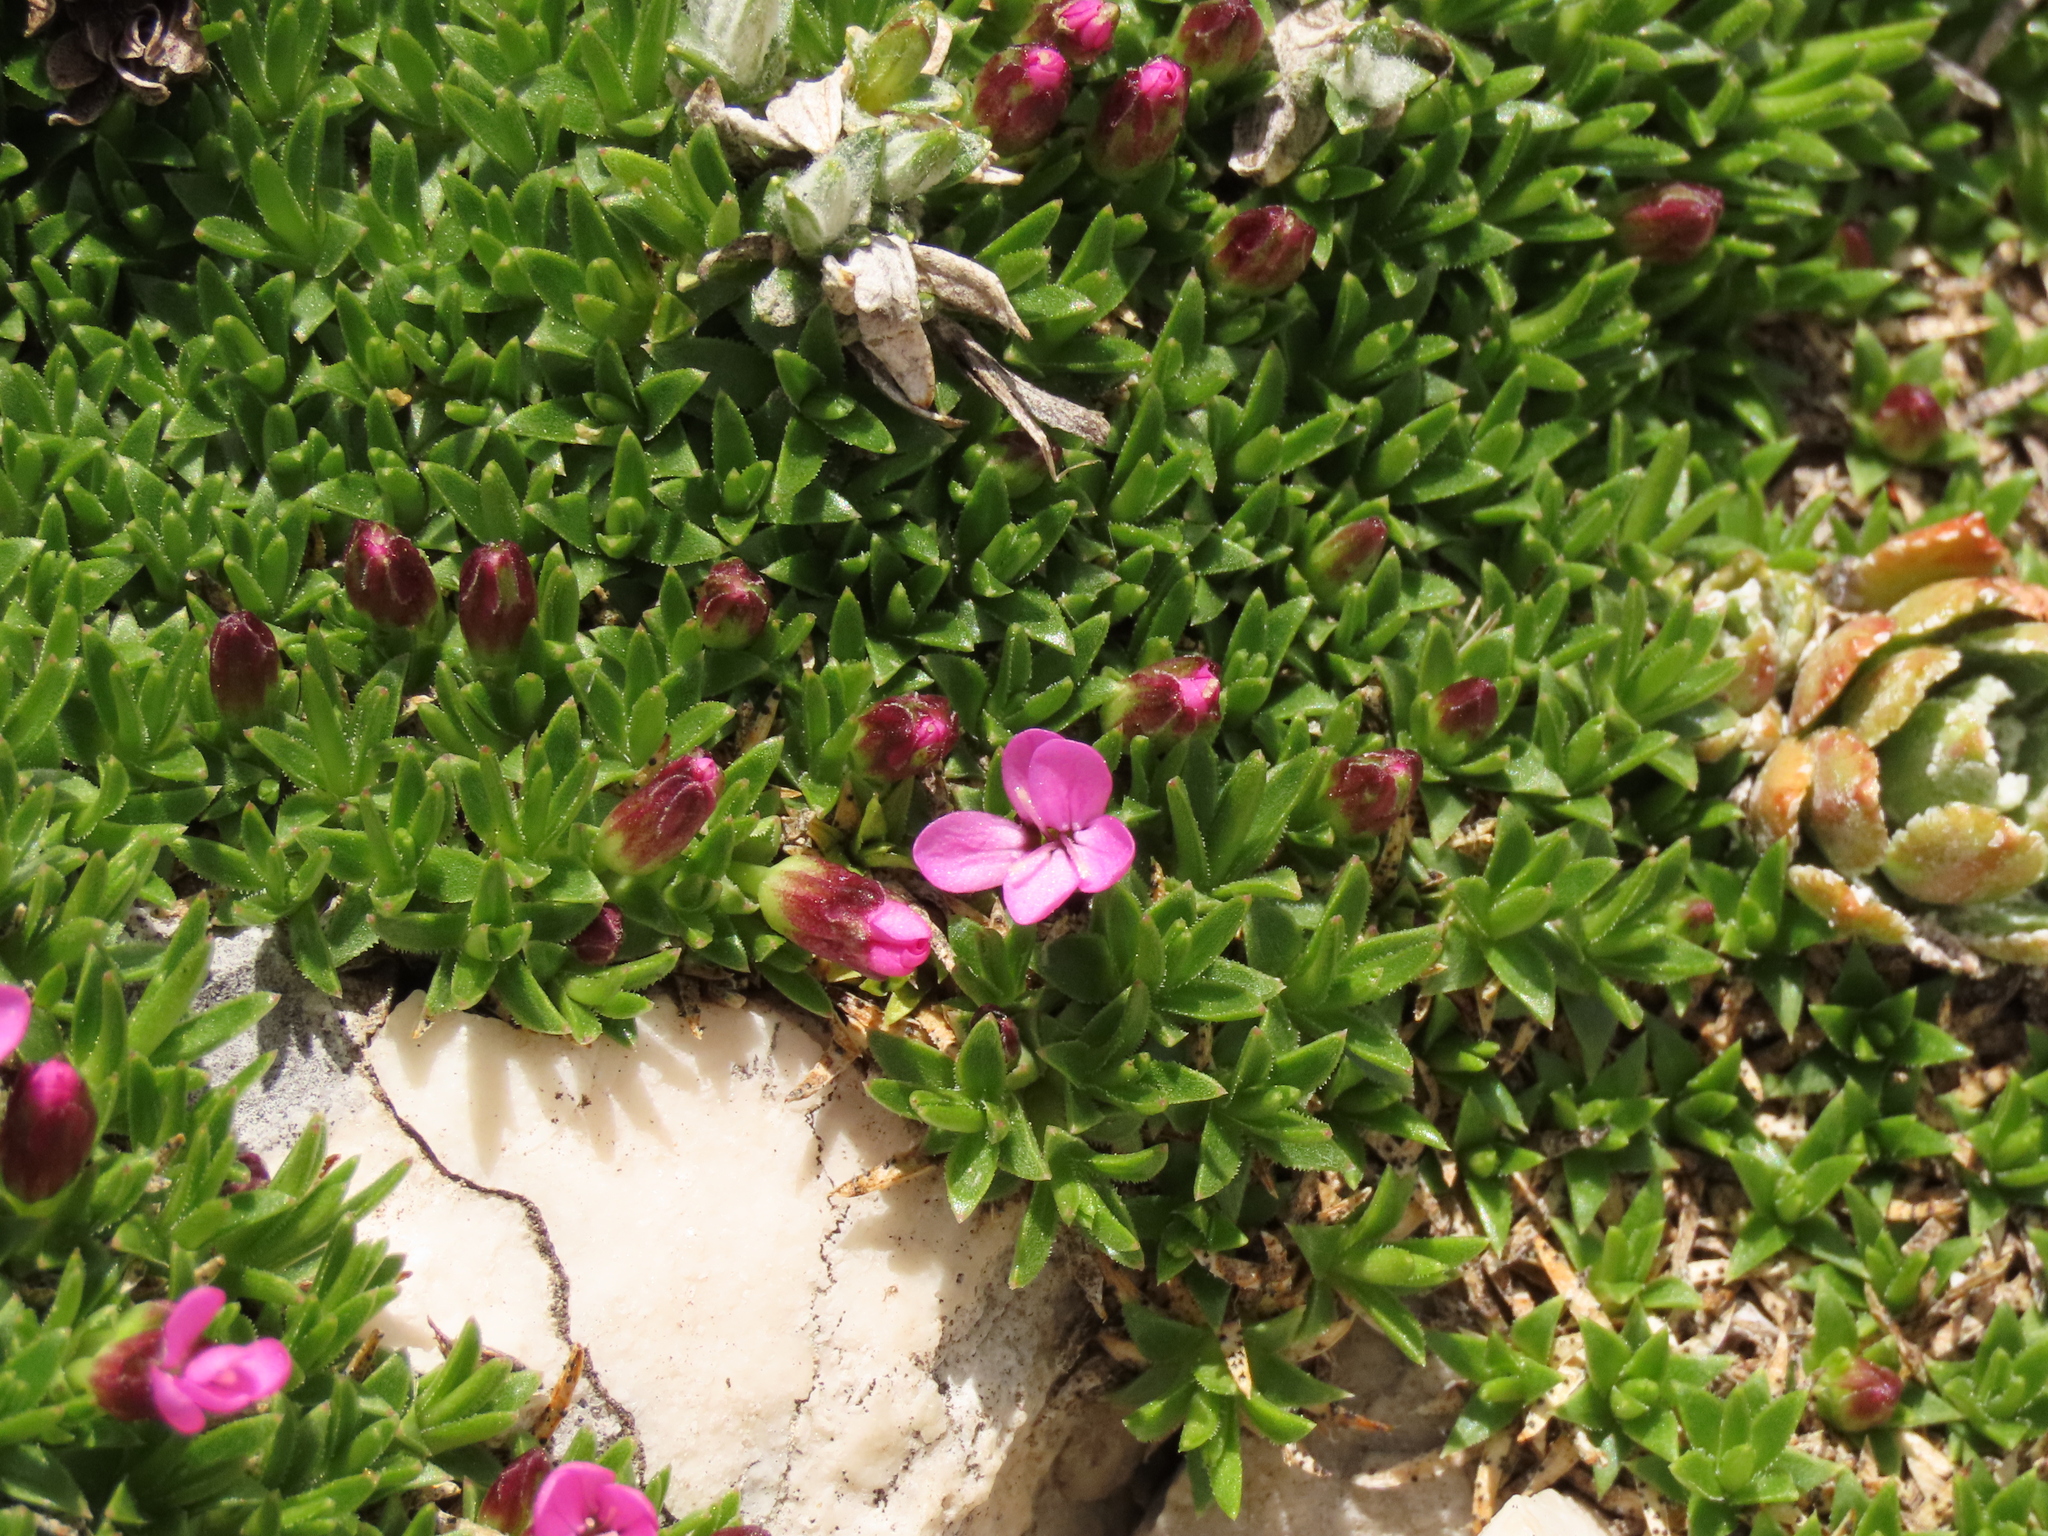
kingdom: Plantae
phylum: Tracheophyta
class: Magnoliopsida
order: Caryophyllales
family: Caryophyllaceae
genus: Silene
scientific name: Silene acaulis
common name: Moss campion
